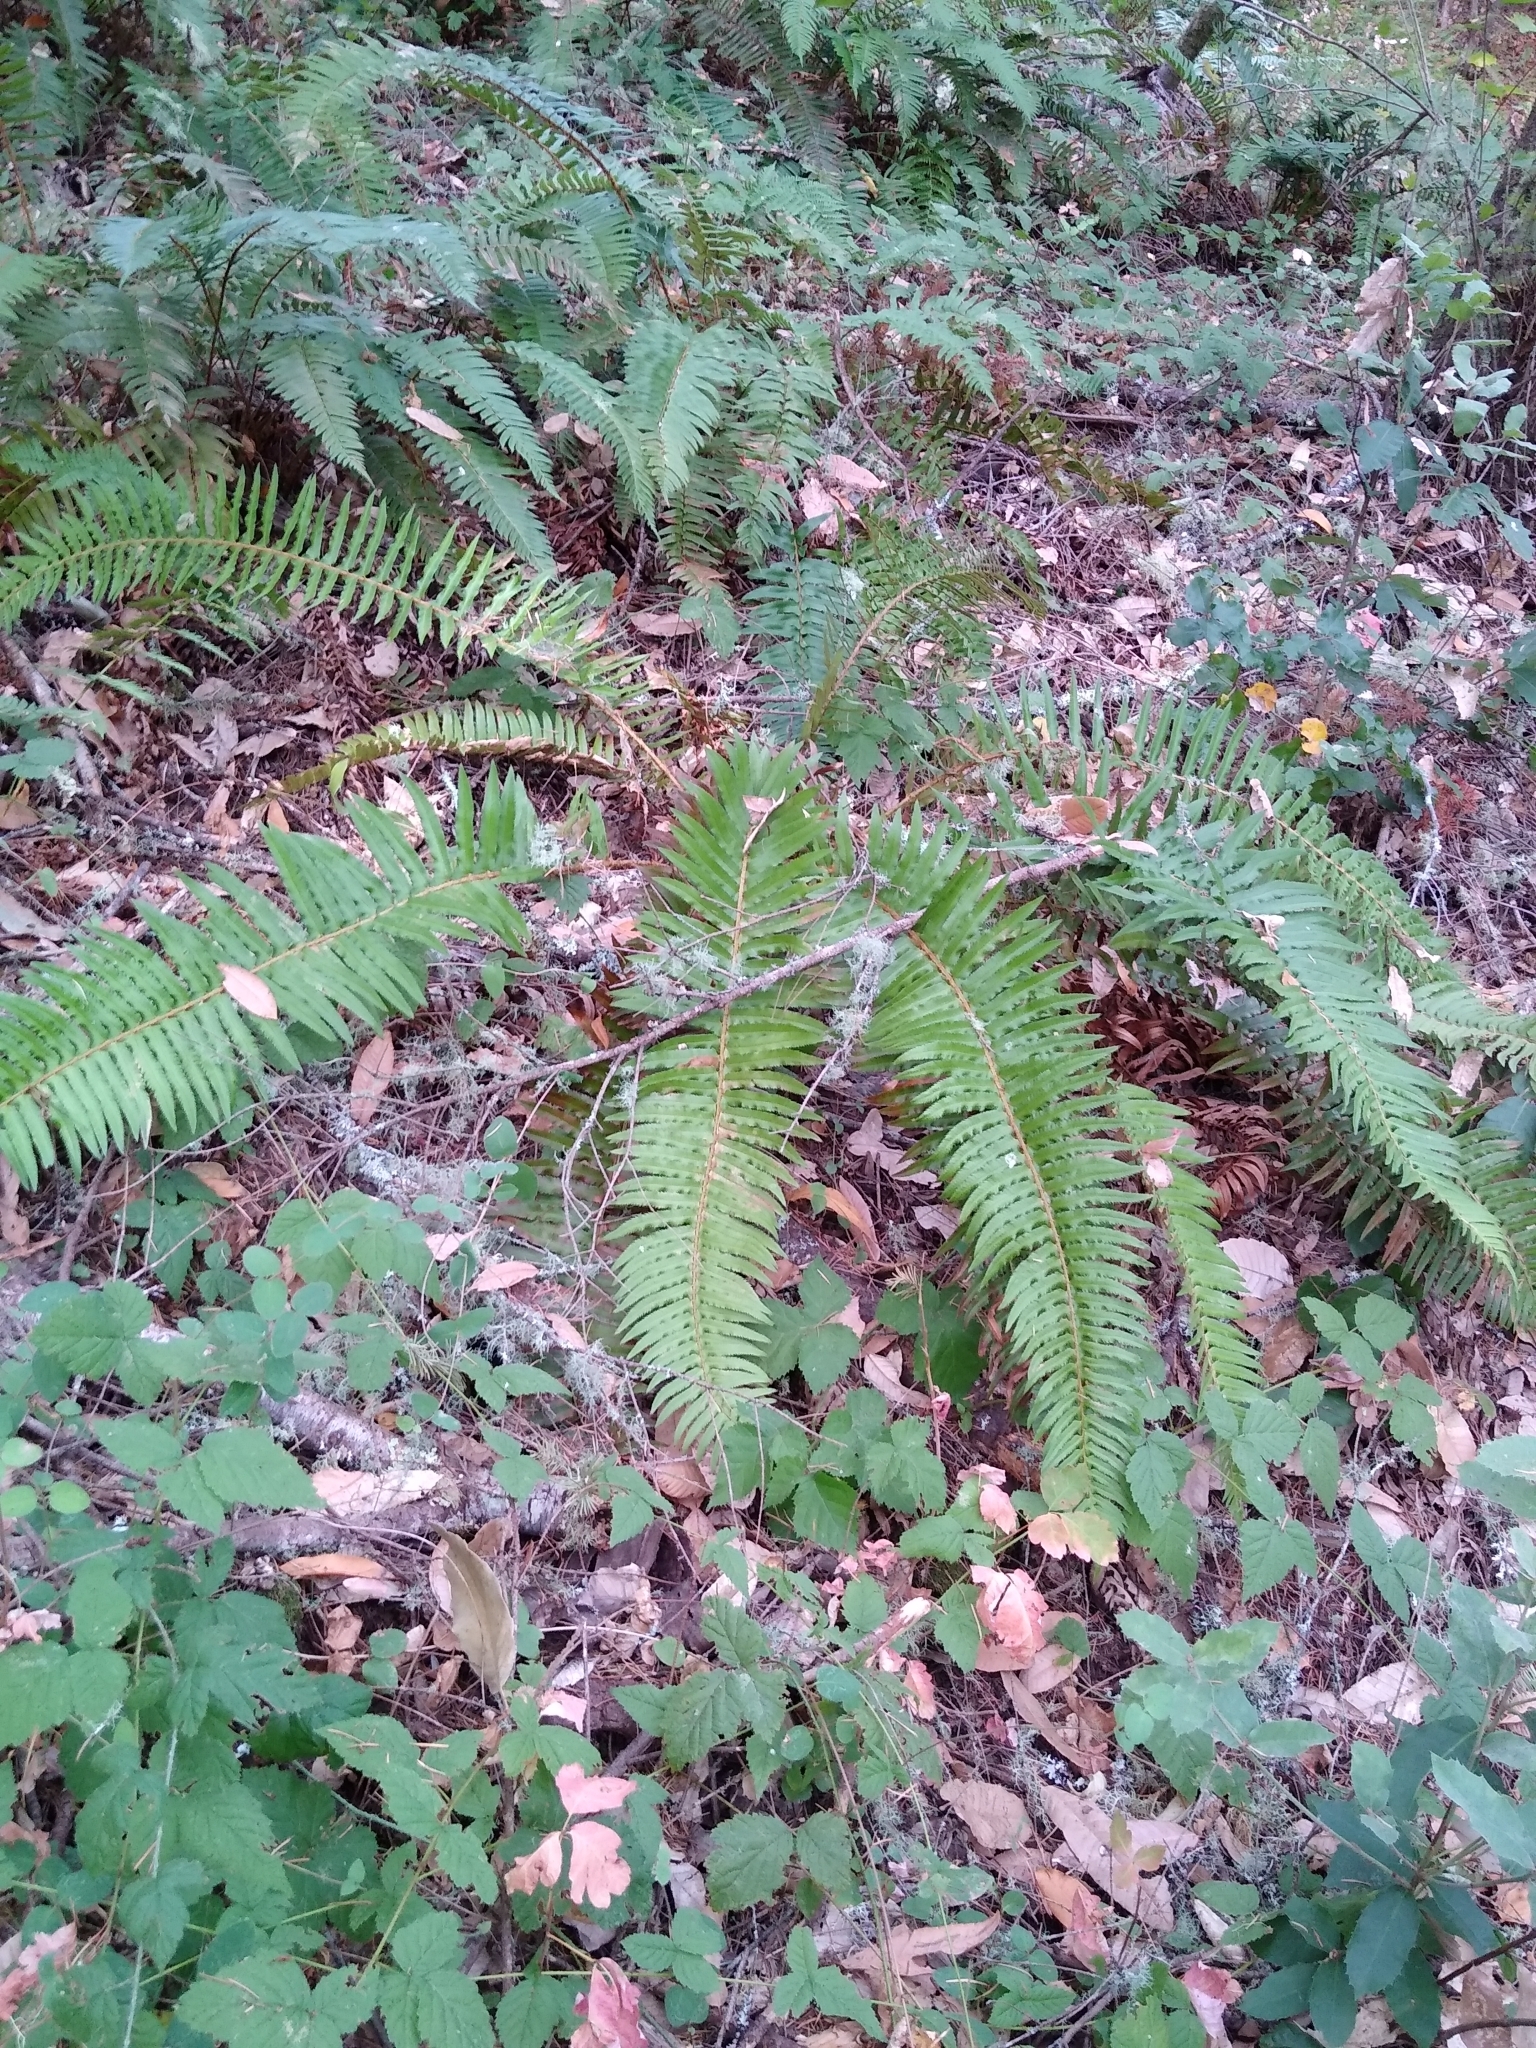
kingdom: Plantae
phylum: Tracheophyta
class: Polypodiopsida
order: Polypodiales
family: Dryopteridaceae
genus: Polystichum
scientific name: Polystichum munitum
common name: Western sword-fern
